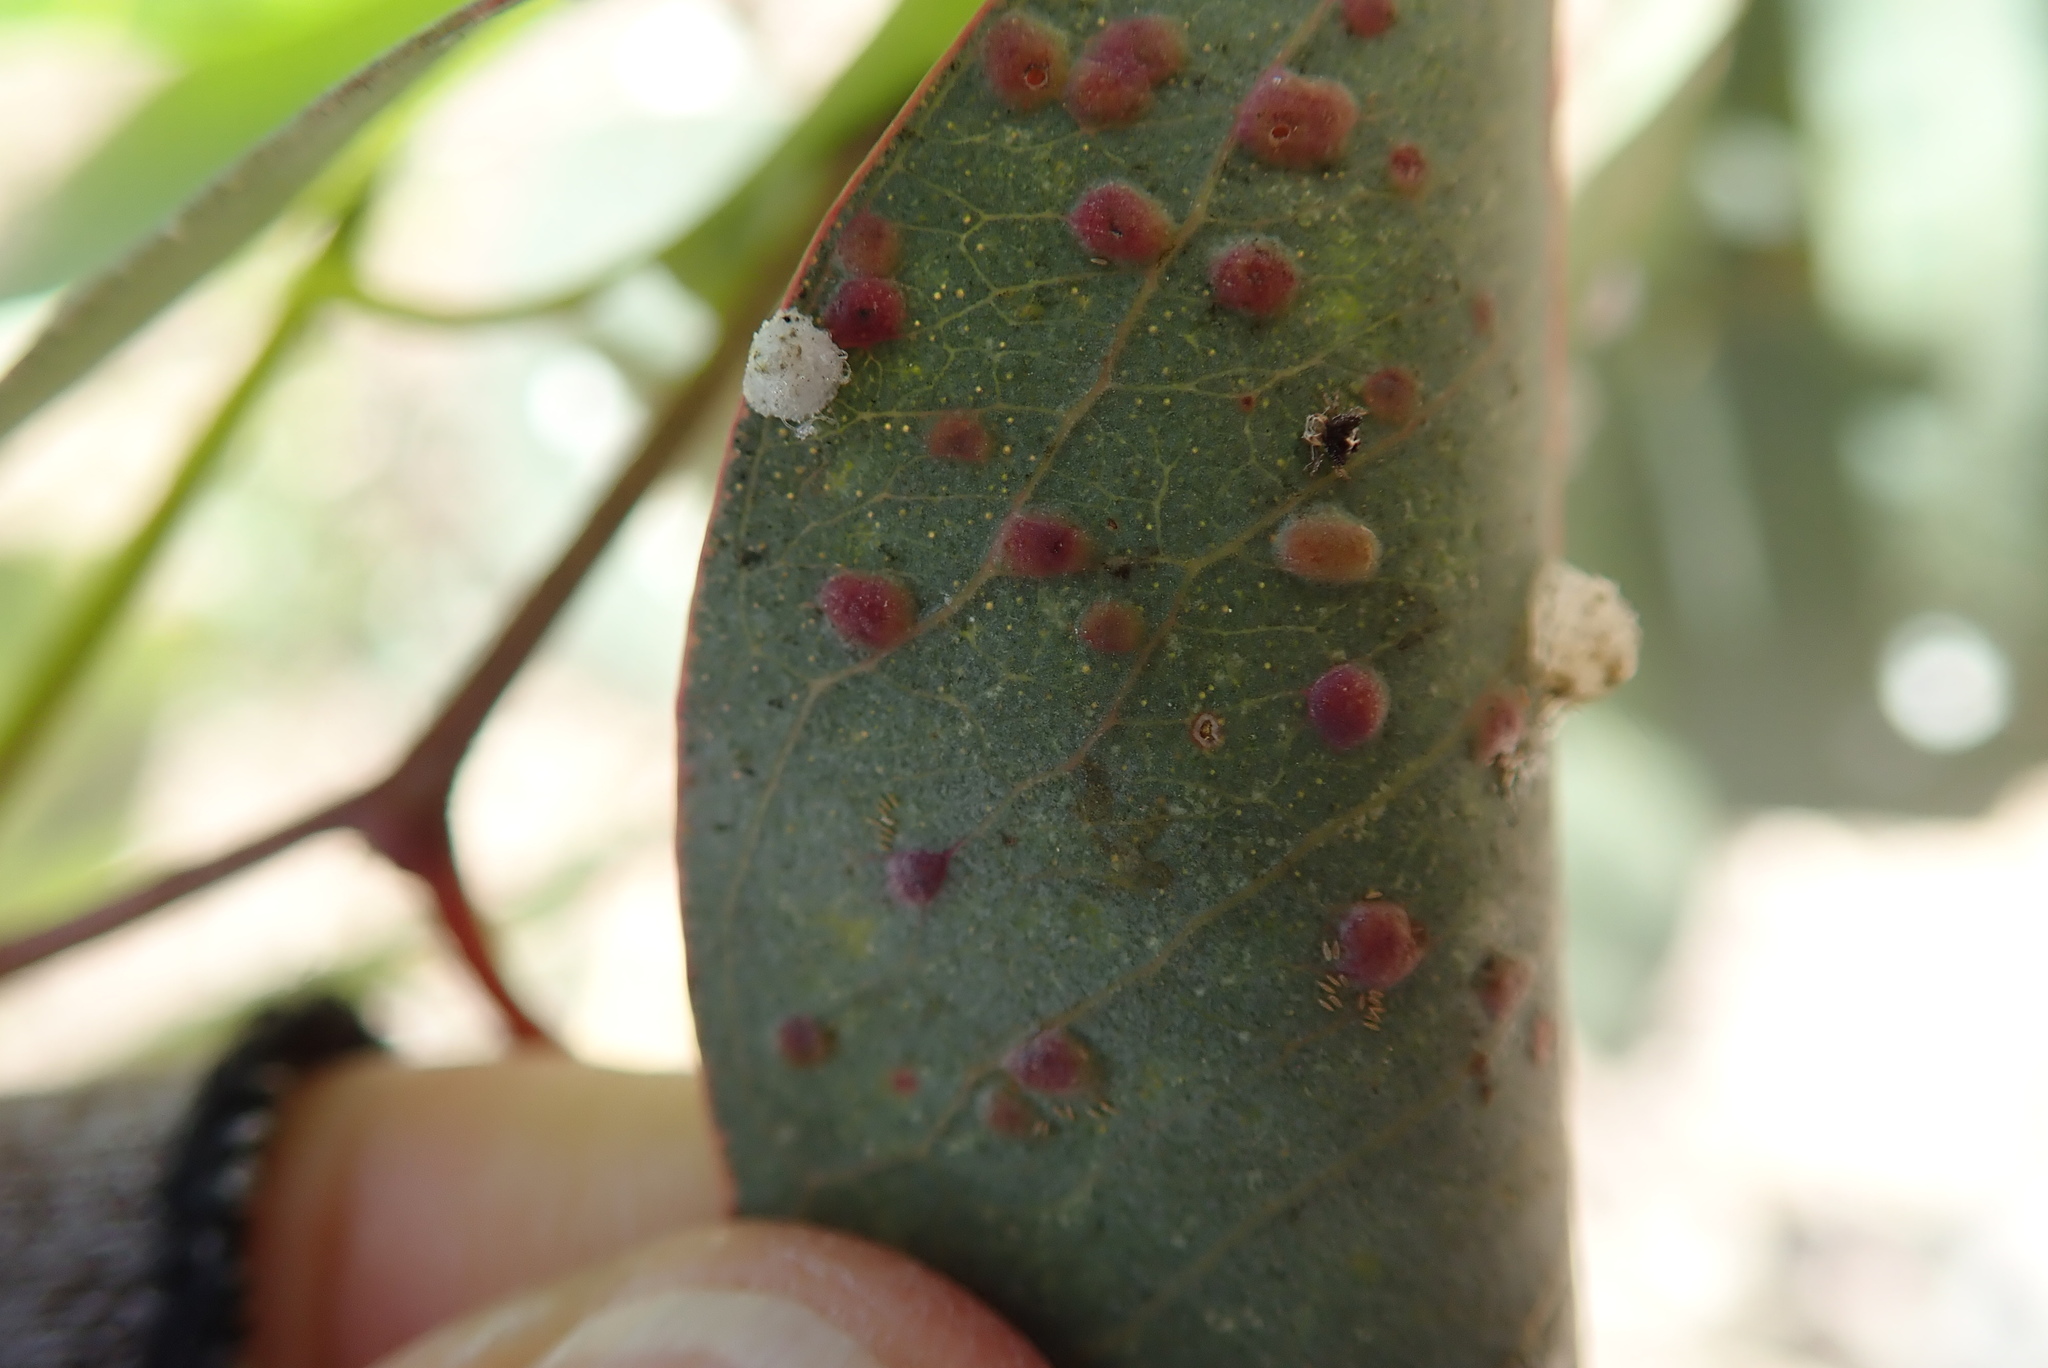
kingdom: Animalia
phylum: Arthropoda
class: Insecta
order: Hymenoptera
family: Eulophidae
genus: Ophelimus
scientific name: Ophelimus maskelli
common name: Gall wasp
